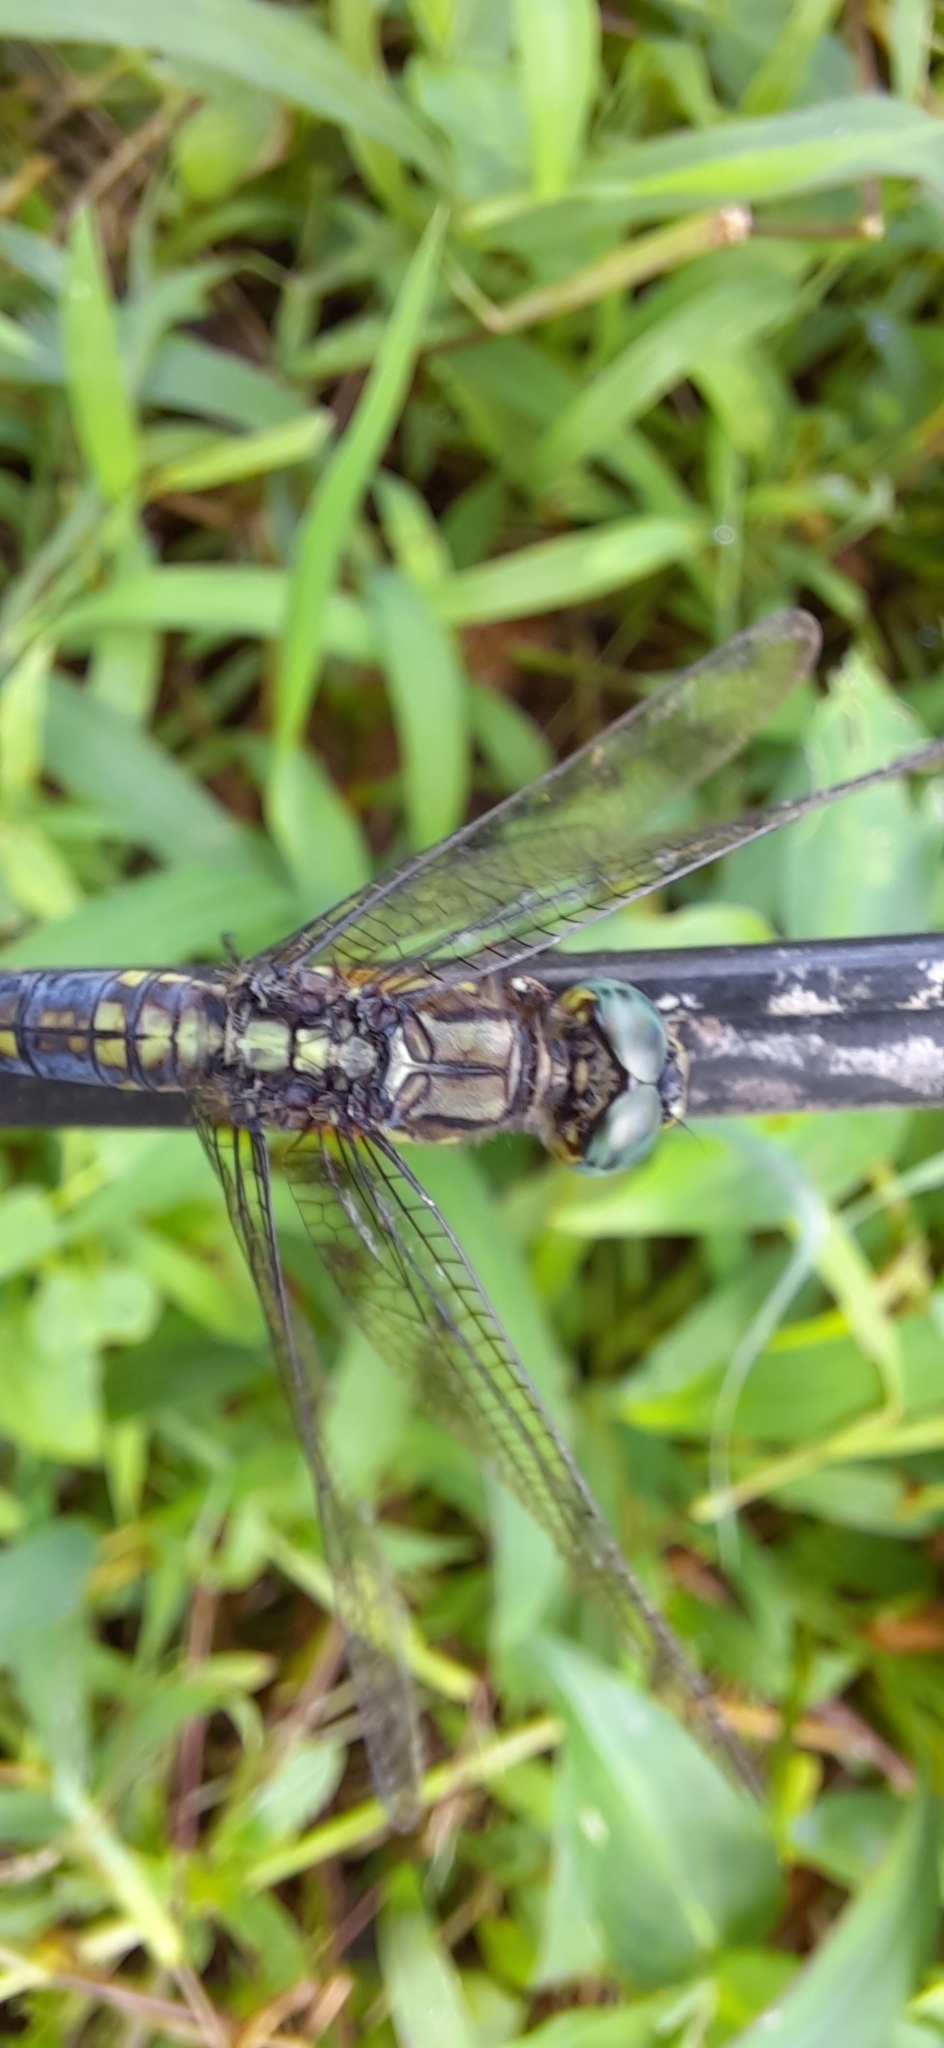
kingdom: Animalia
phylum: Arthropoda
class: Insecta
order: Odonata
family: Libellulidae
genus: Orthetrum
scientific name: Orthetrum luzonicum
